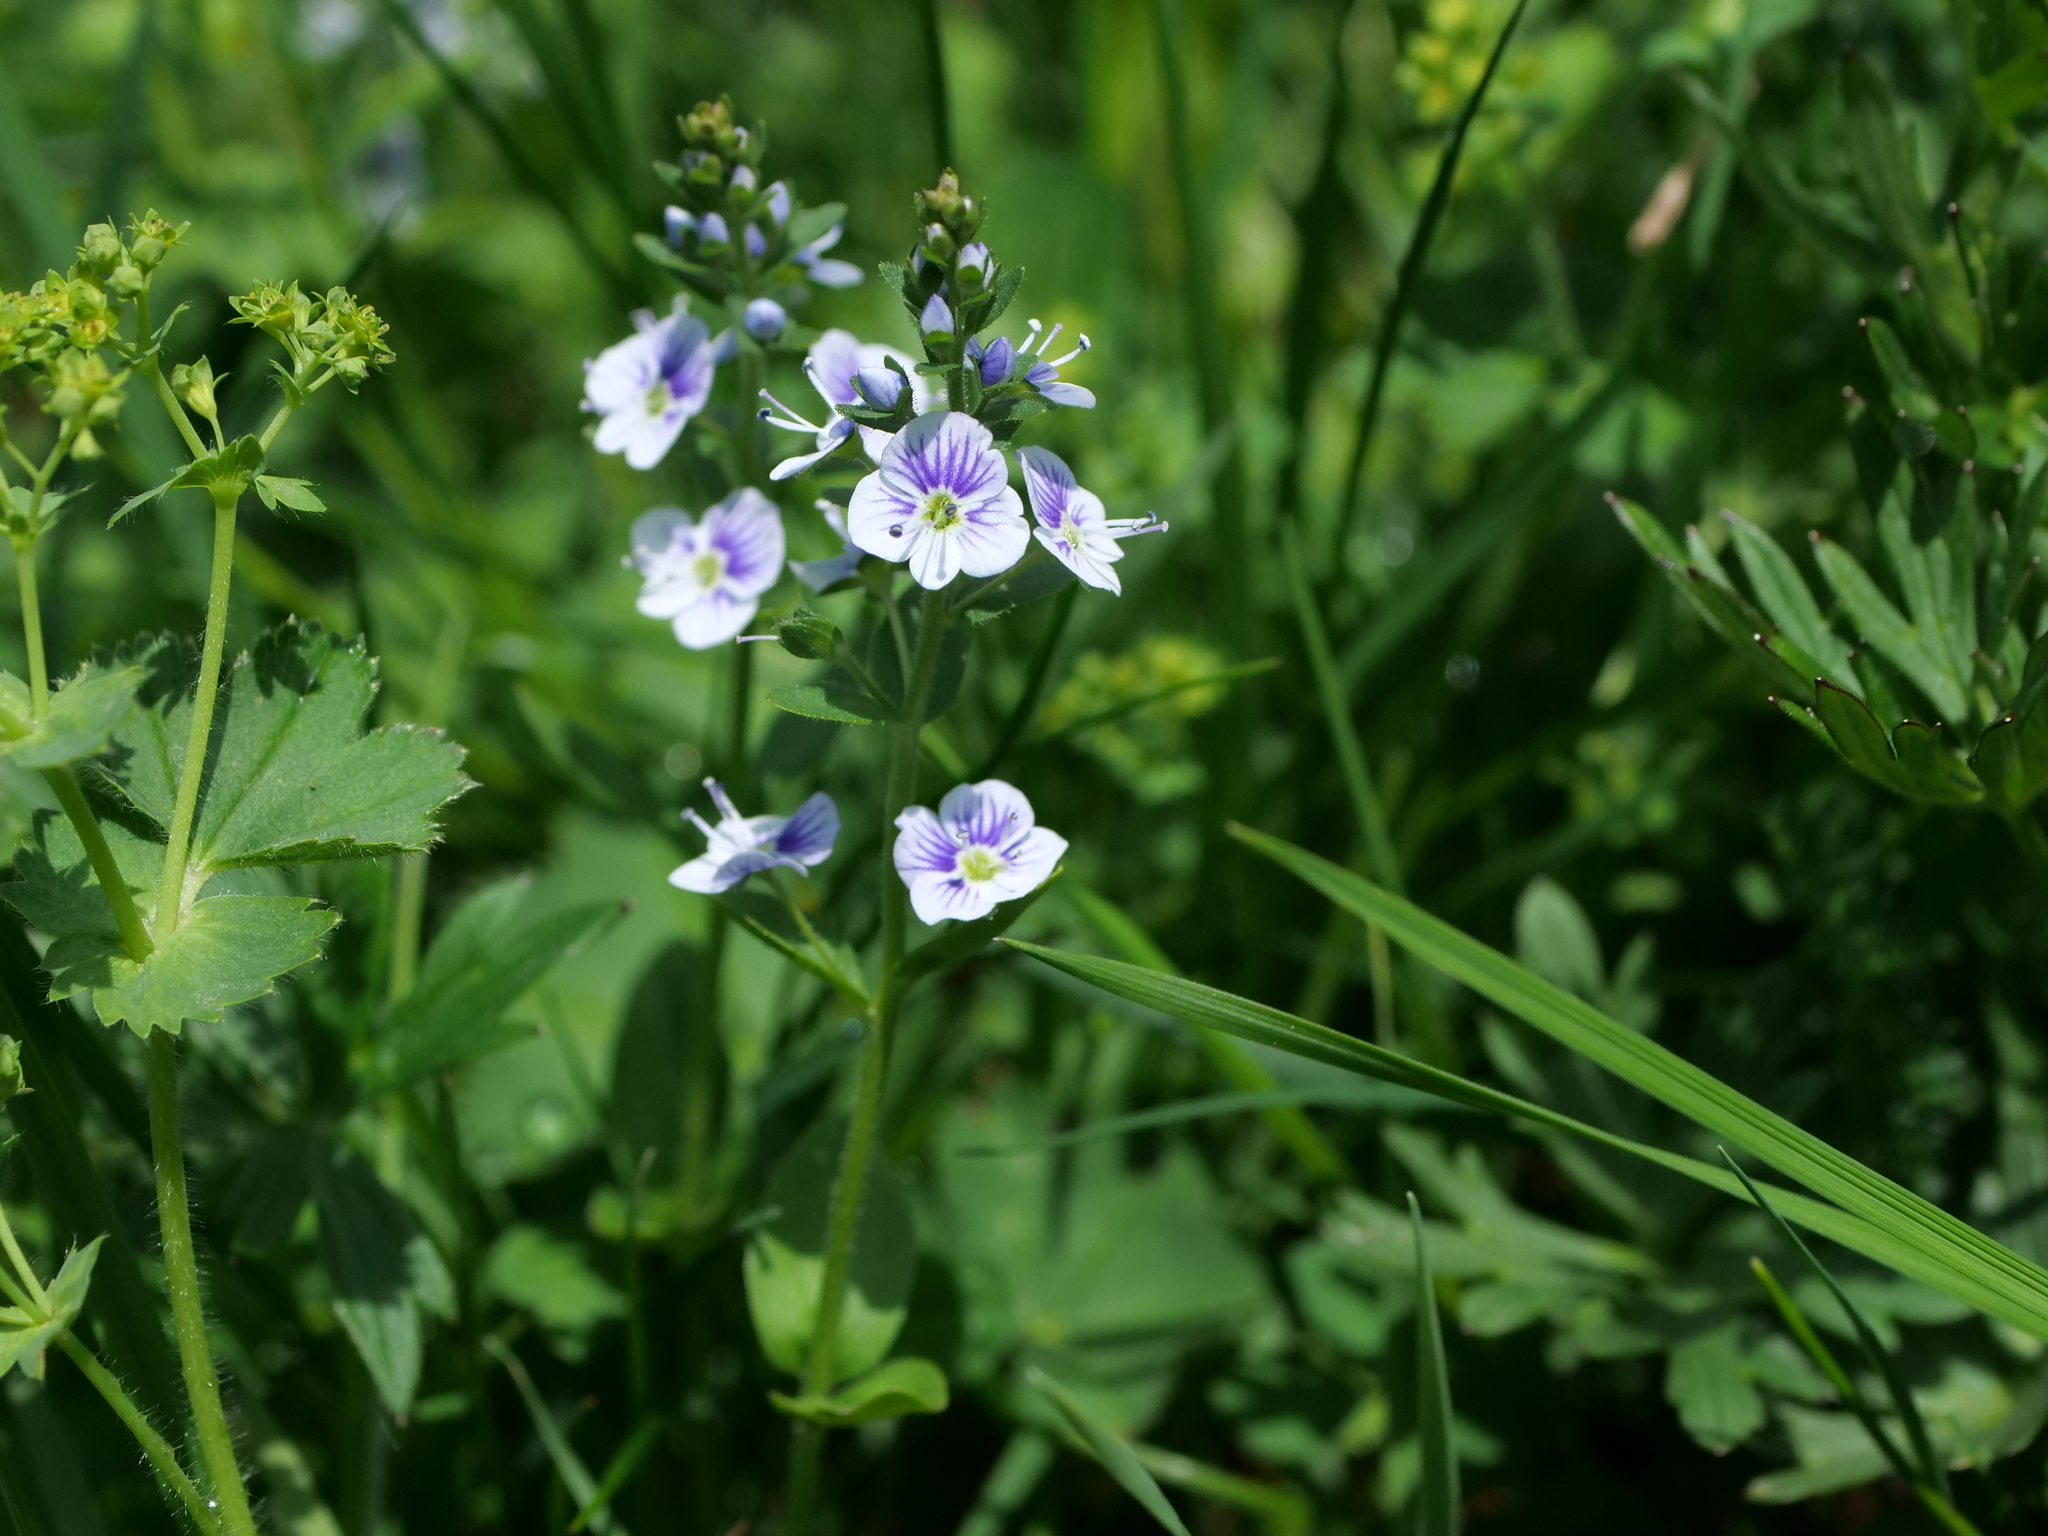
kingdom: Plantae
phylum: Tracheophyta
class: Magnoliopsida
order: Lamiales
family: Plantaginaceae
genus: Veronica
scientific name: Veronica serpyllifolia
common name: Thyme-leaved speedwell
